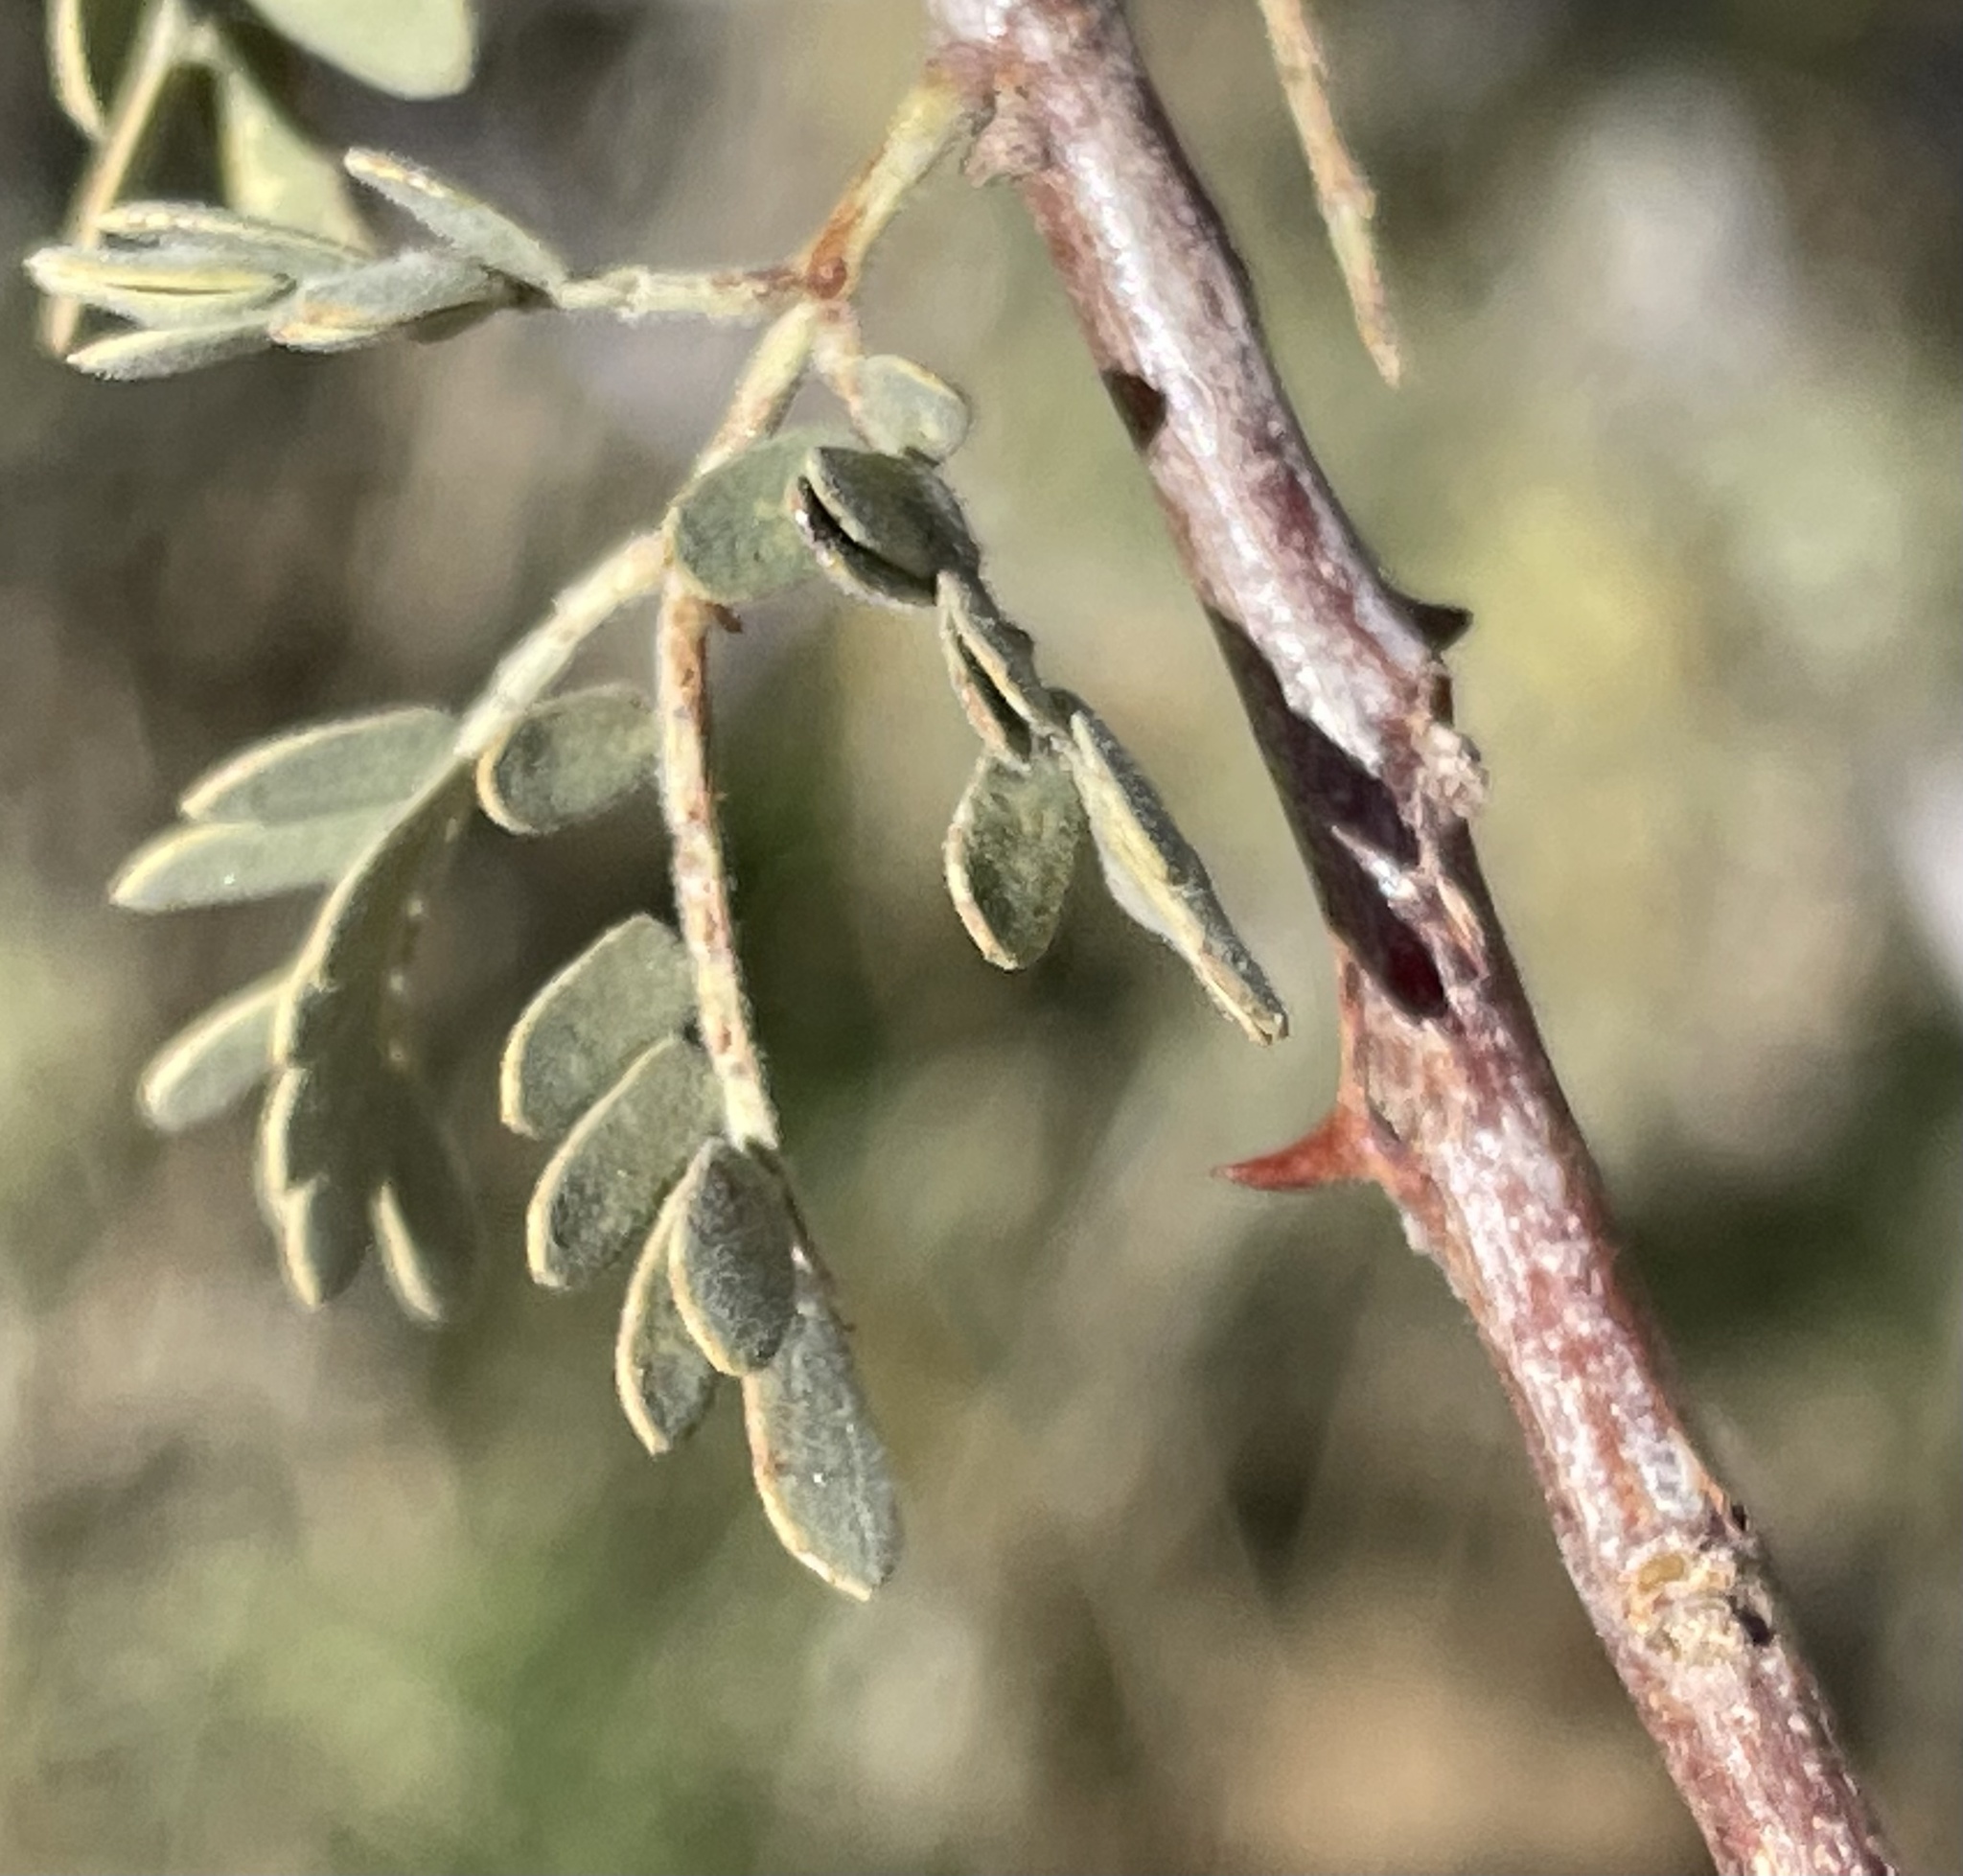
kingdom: Plantae
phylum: Tracheophyta
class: Magnoliopsida
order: Fabales
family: Fabaceae
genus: Senegalia
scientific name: Senegalia greggii
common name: Texas-mimosa
